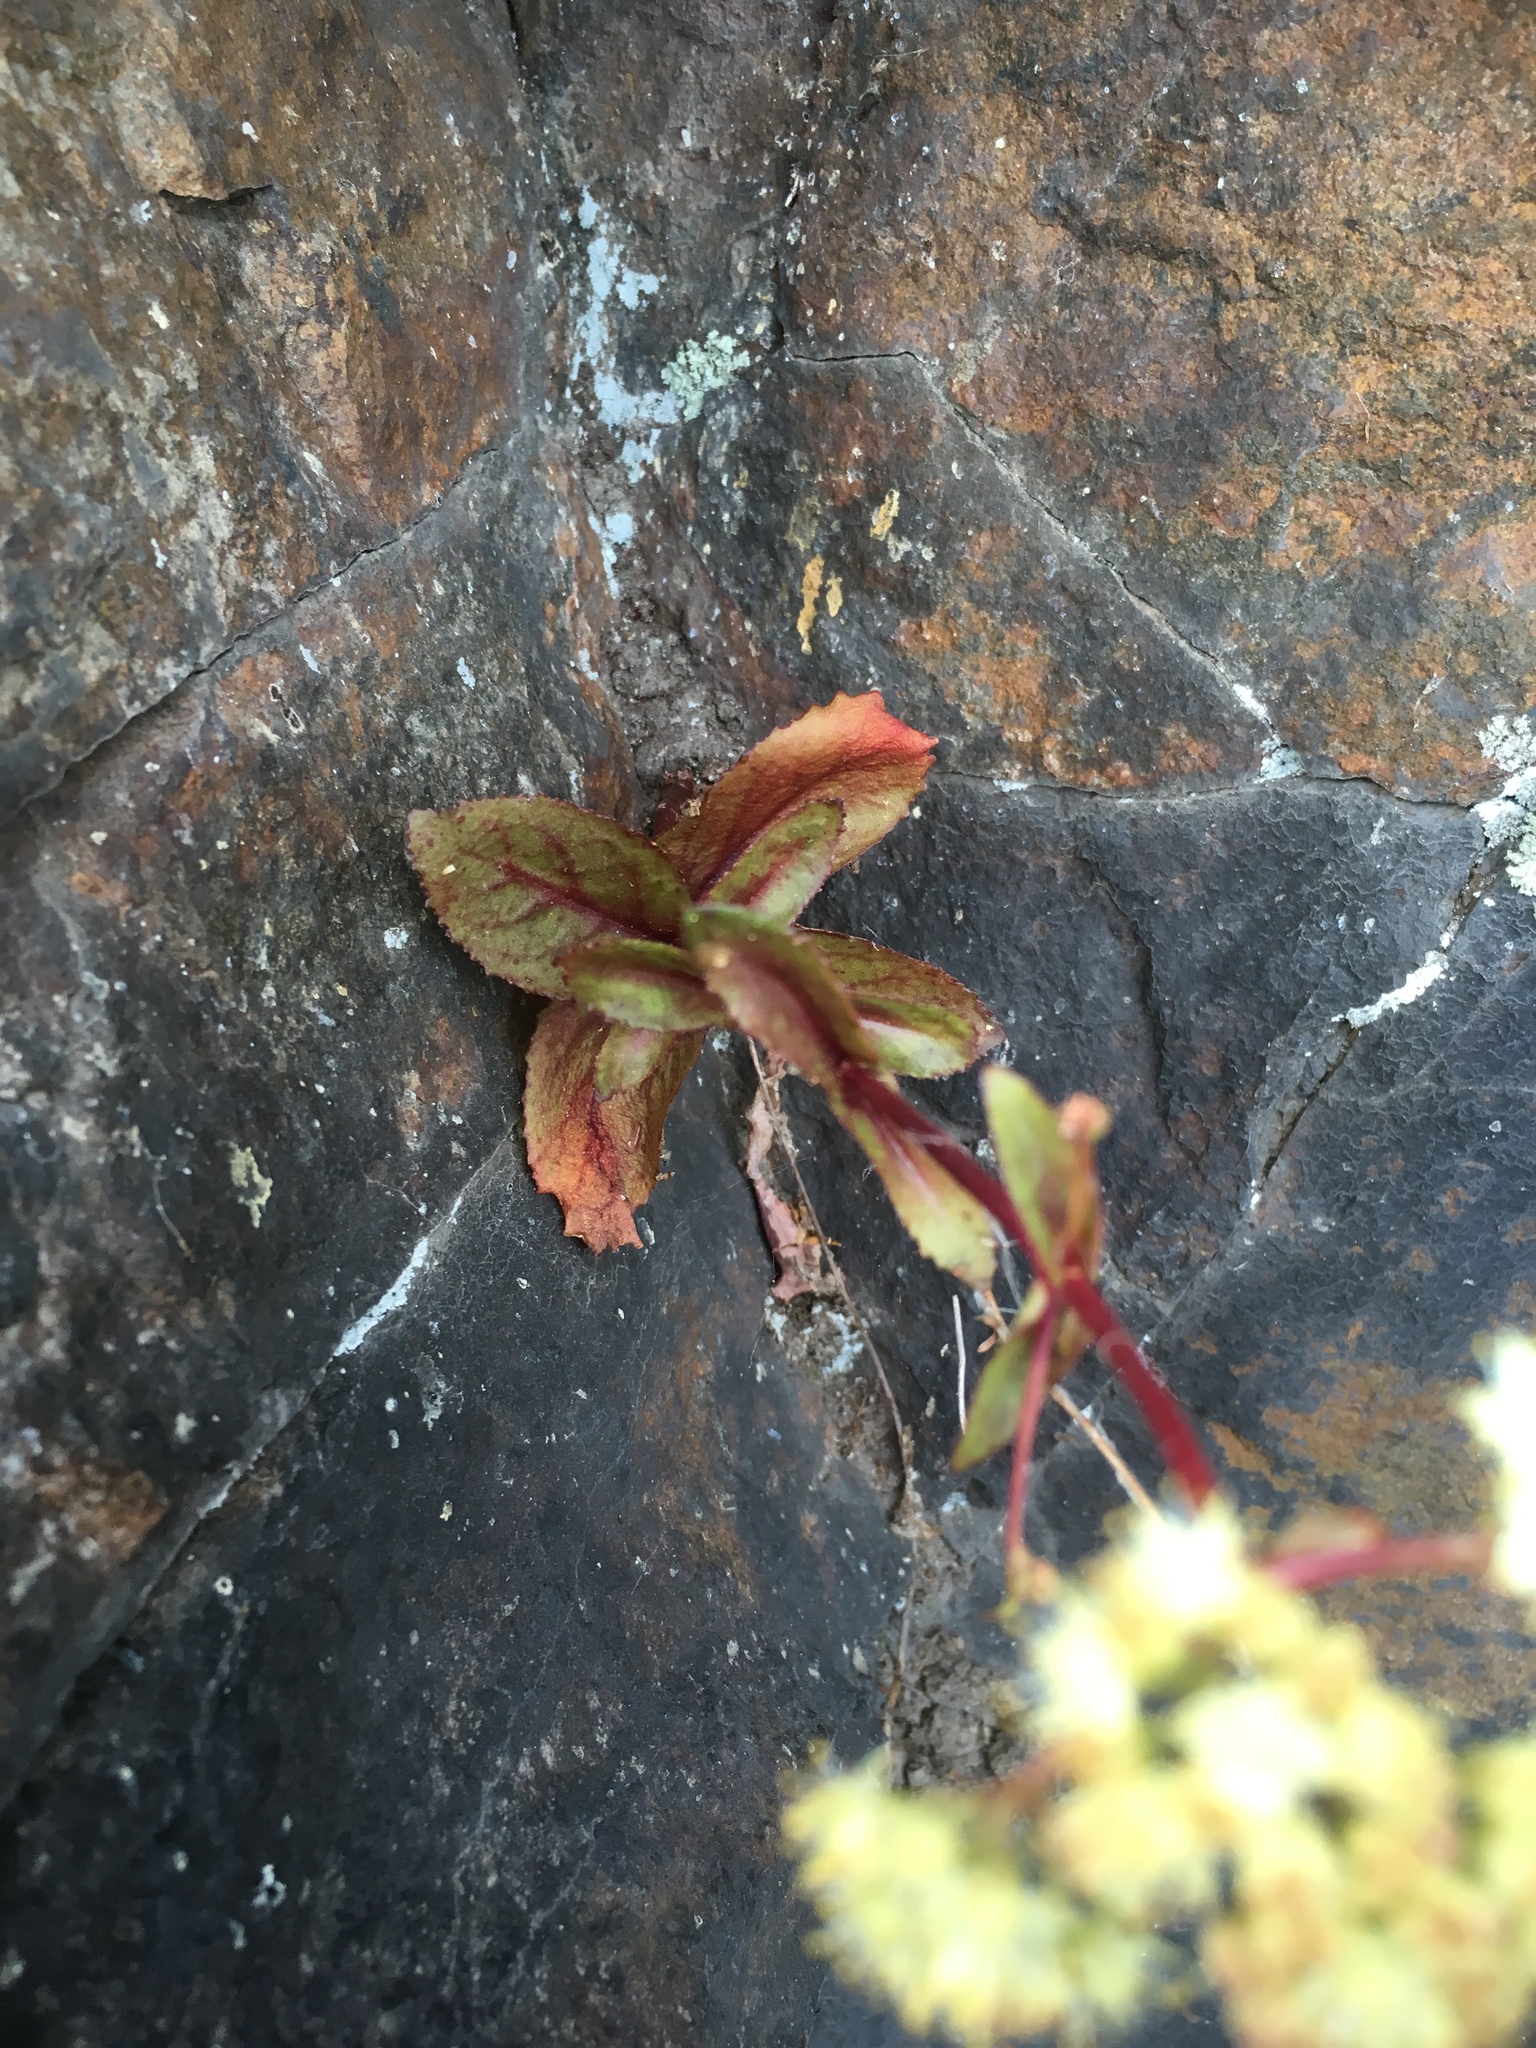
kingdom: Plantae
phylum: Tracheophyta
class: Magnoliopsida
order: Saxifragales
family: Crassulaceae
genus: Hylotelephium
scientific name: Hylotelephium maximum
